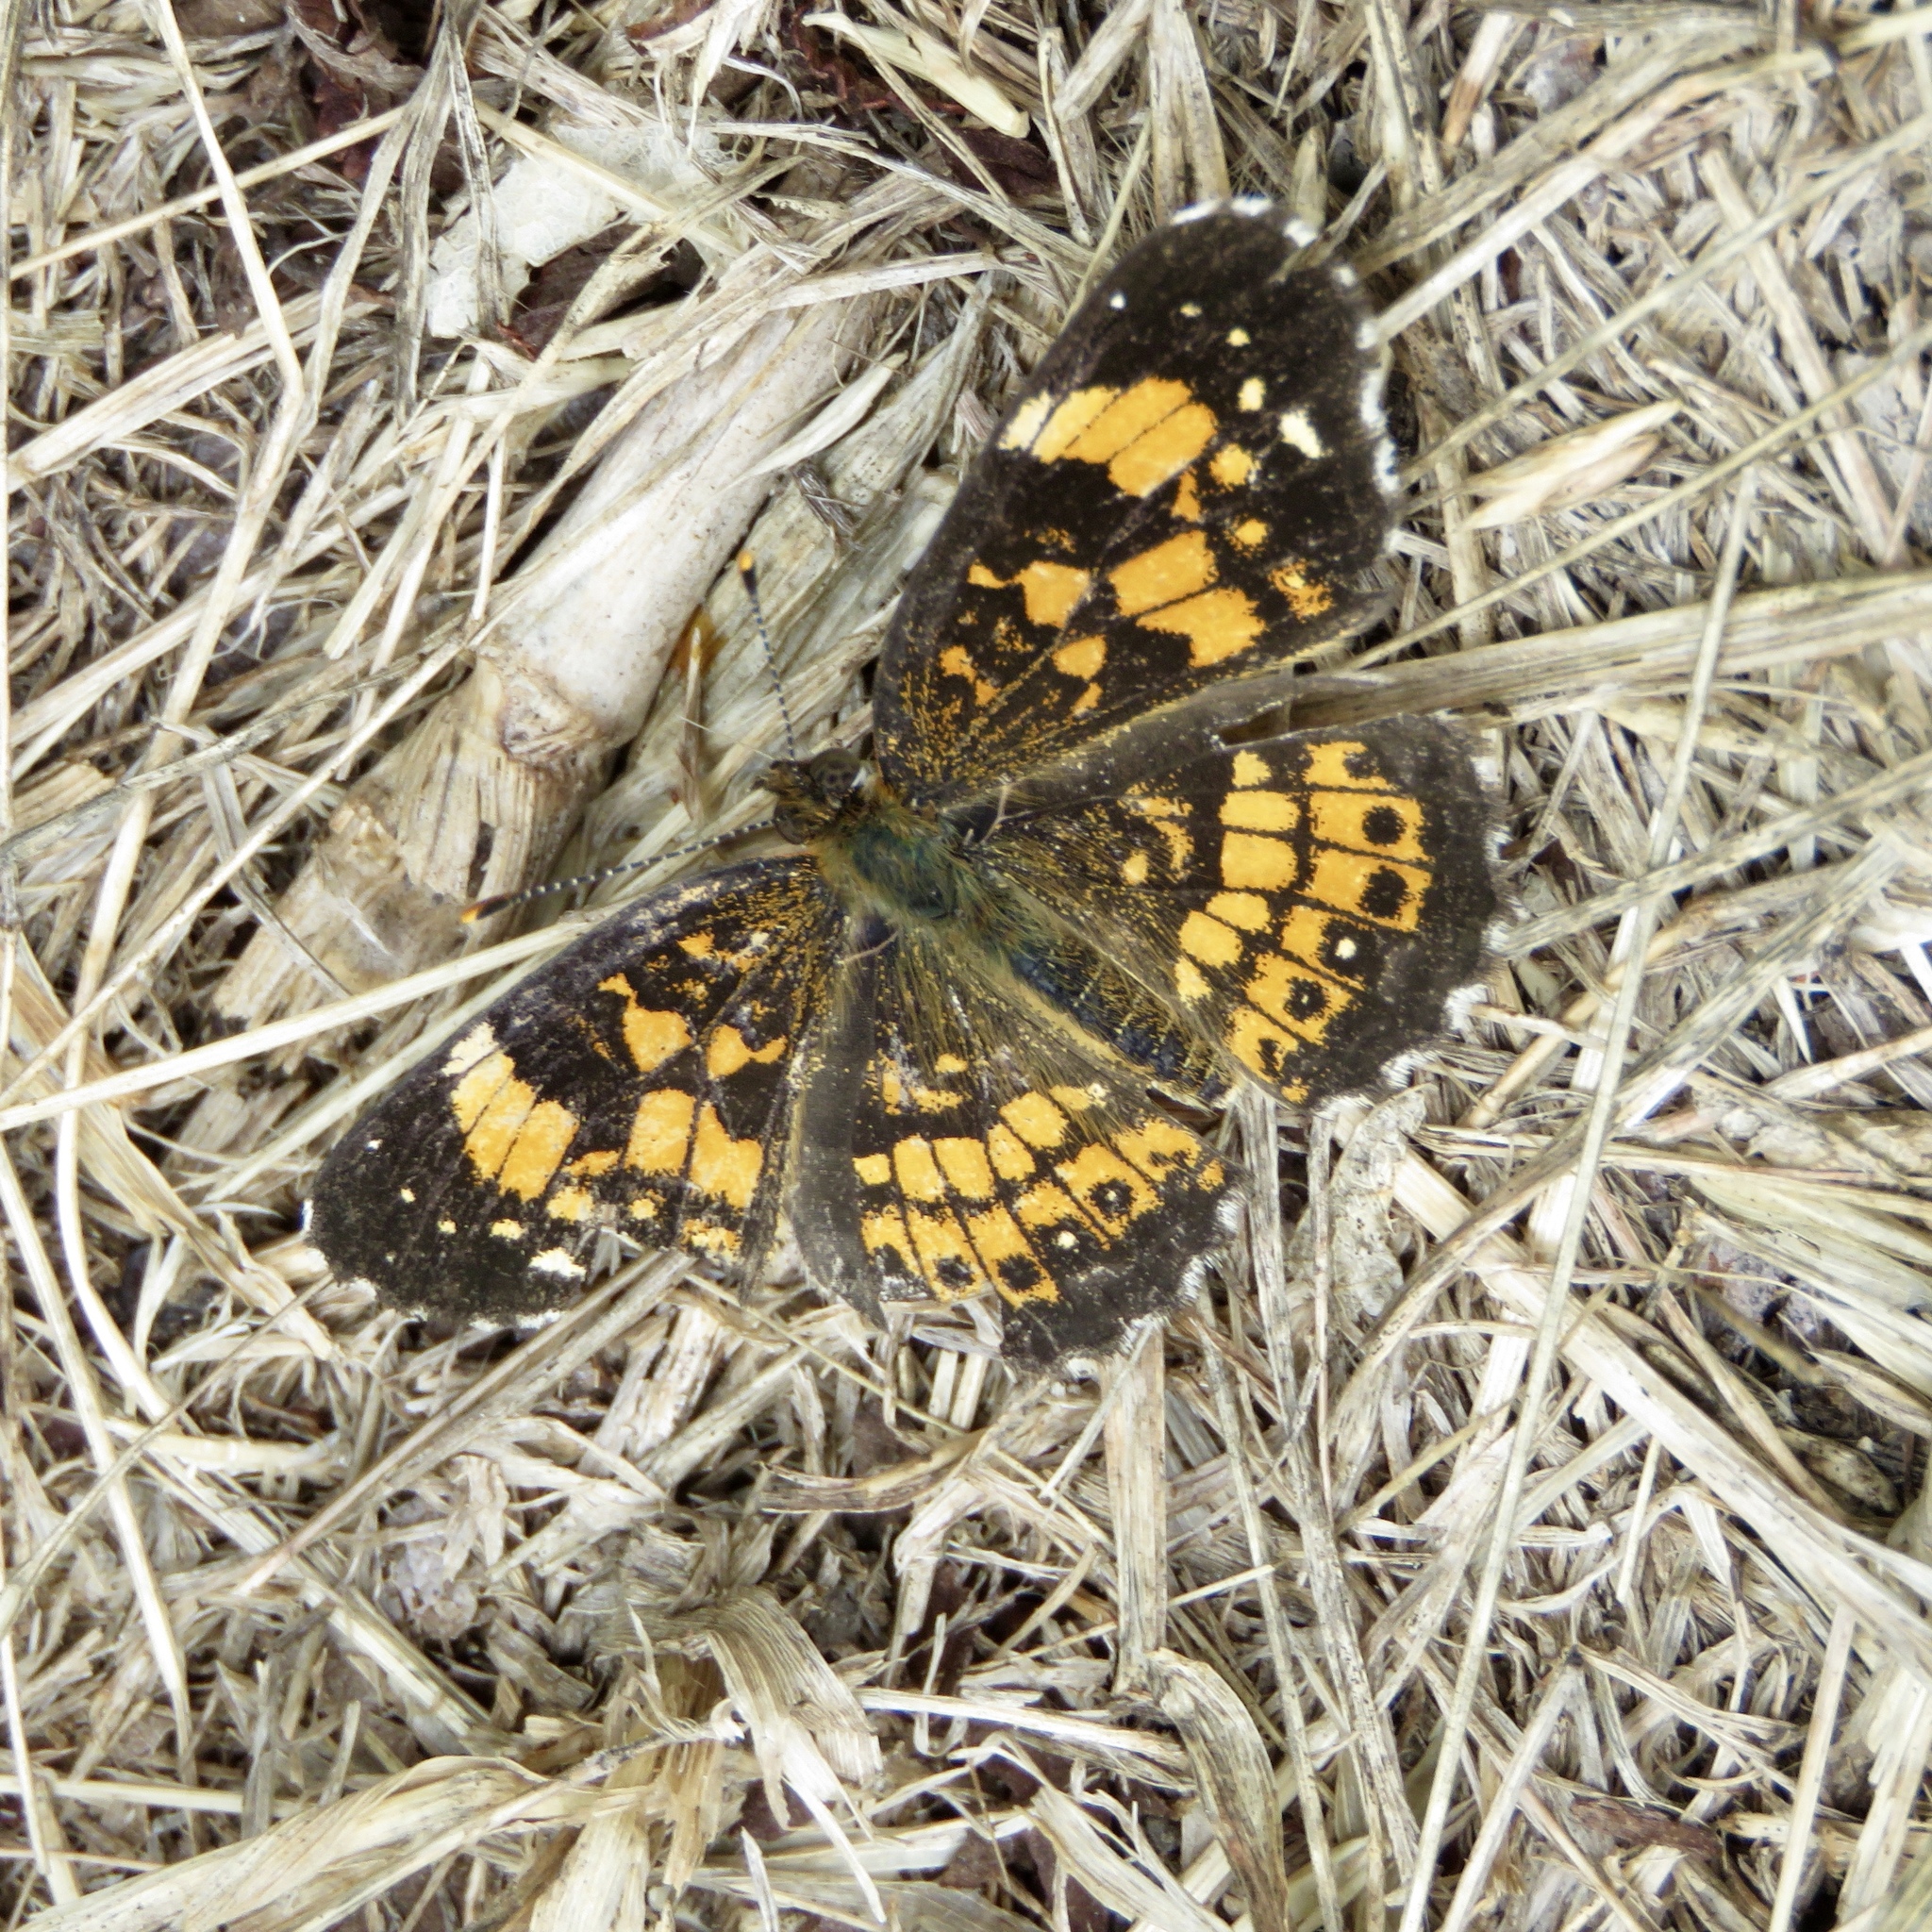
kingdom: Animalia
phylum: Arthropoda
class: Insecta
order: Lepidoptera
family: Nymphalidae
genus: Chlosyne
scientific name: Chlosyne nycteis
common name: Silvery checkerspot
